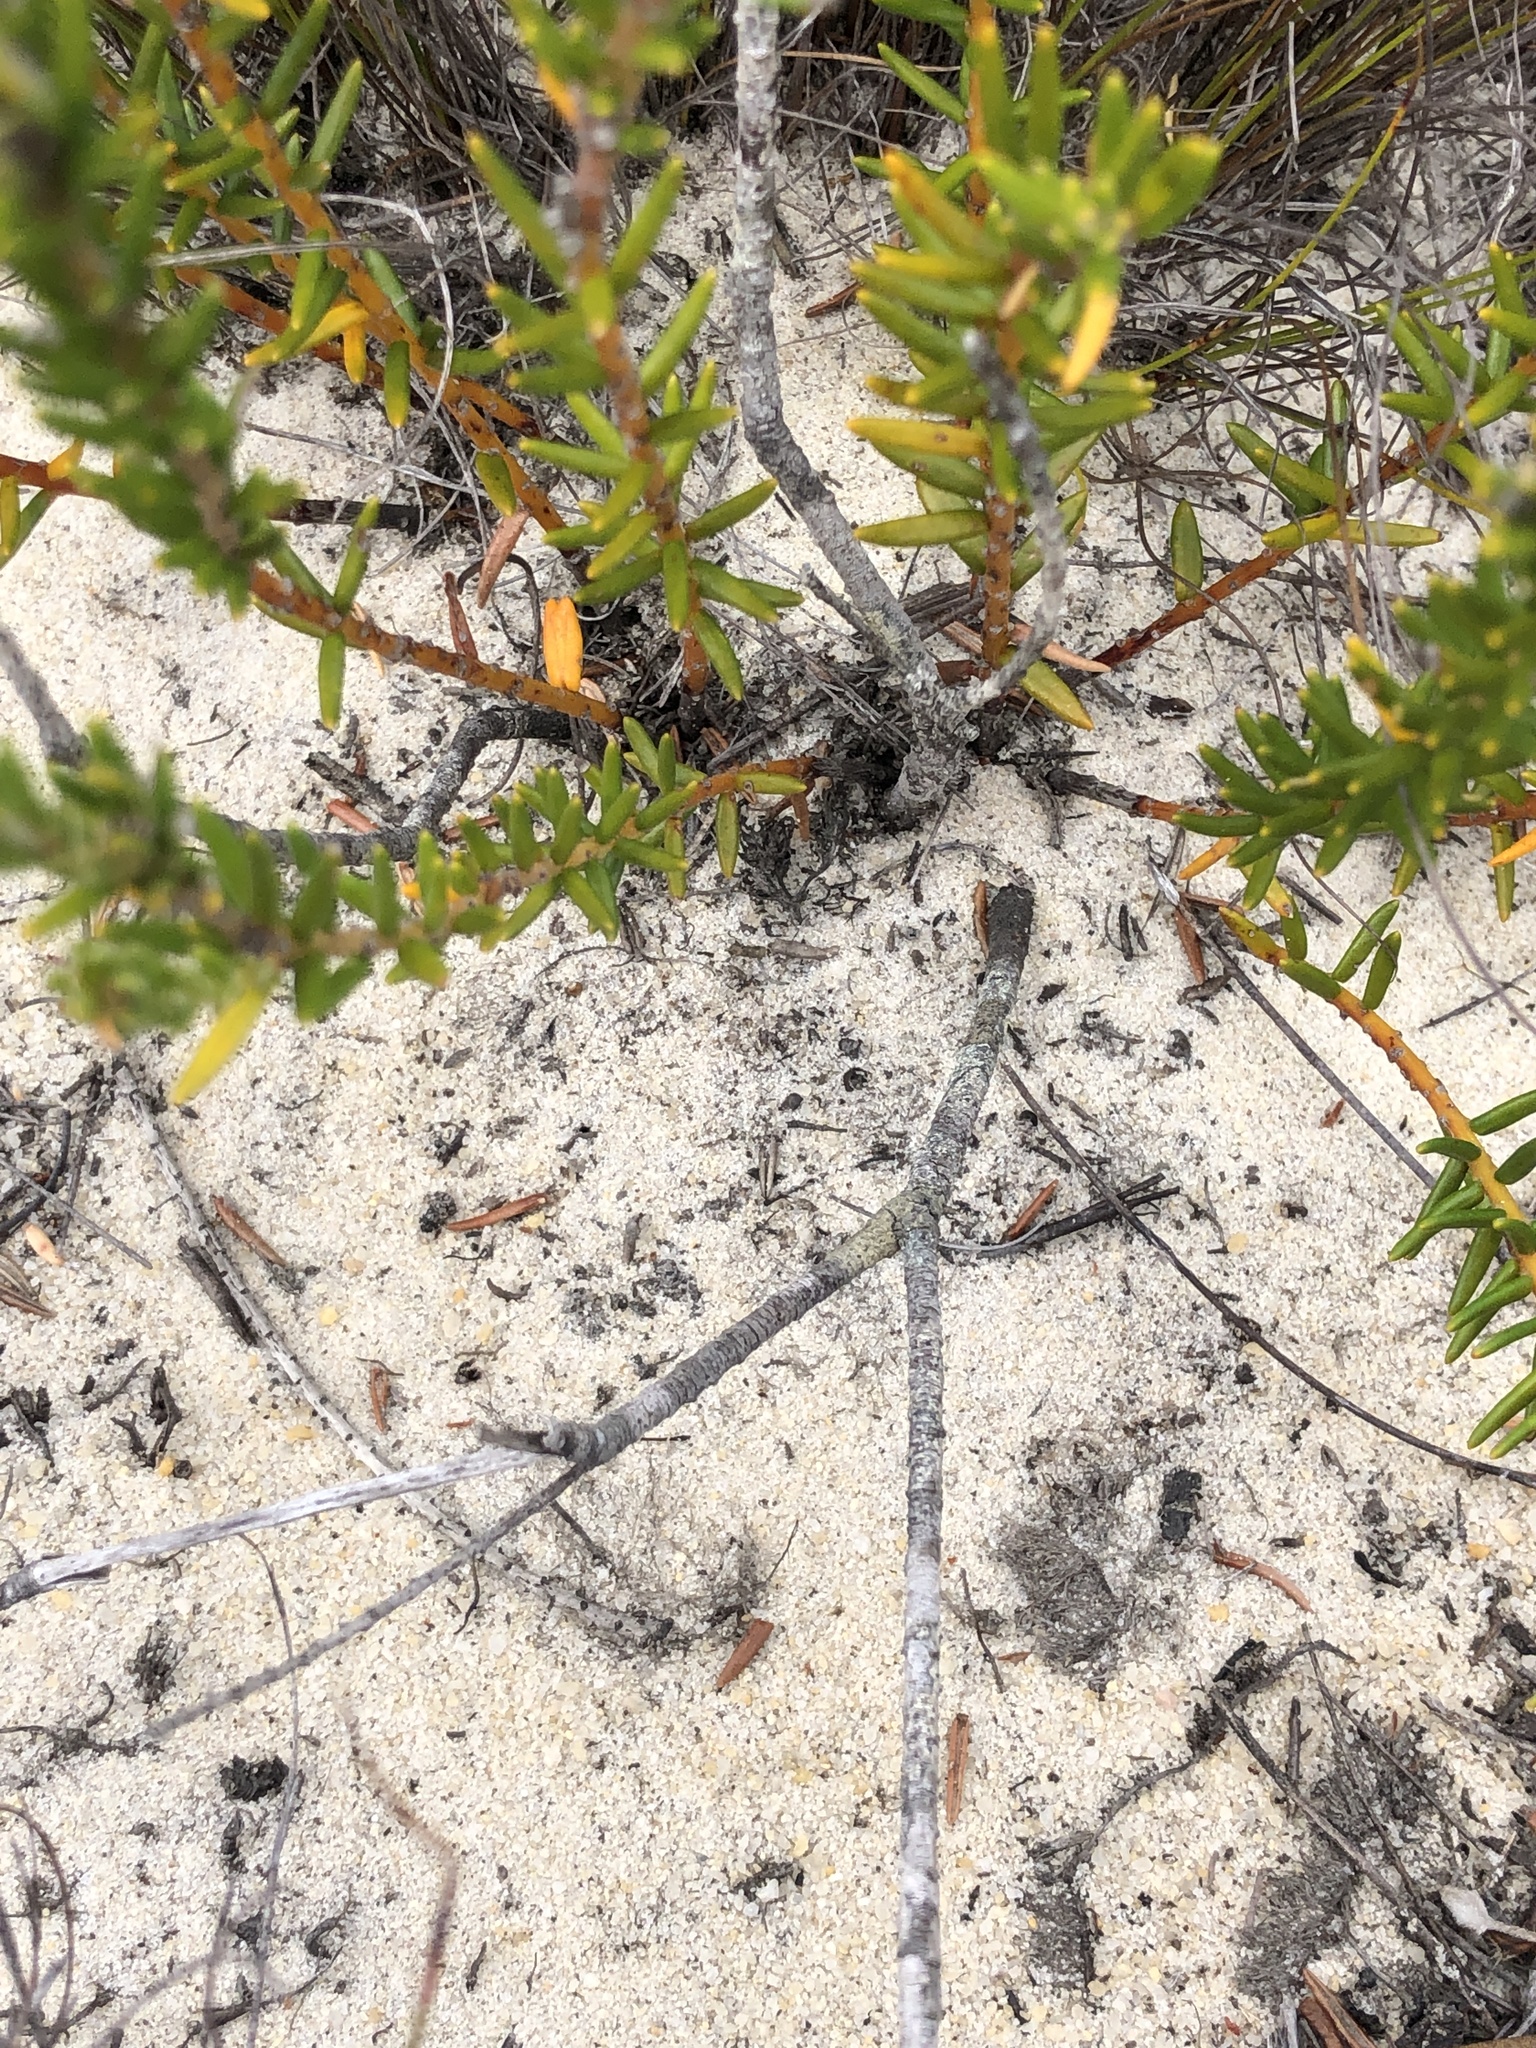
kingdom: Plantae
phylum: Tracheophyta
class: Magnoliopsida
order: Rosales
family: Rhamnaceae
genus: Phylica
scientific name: Phylica imberbis
